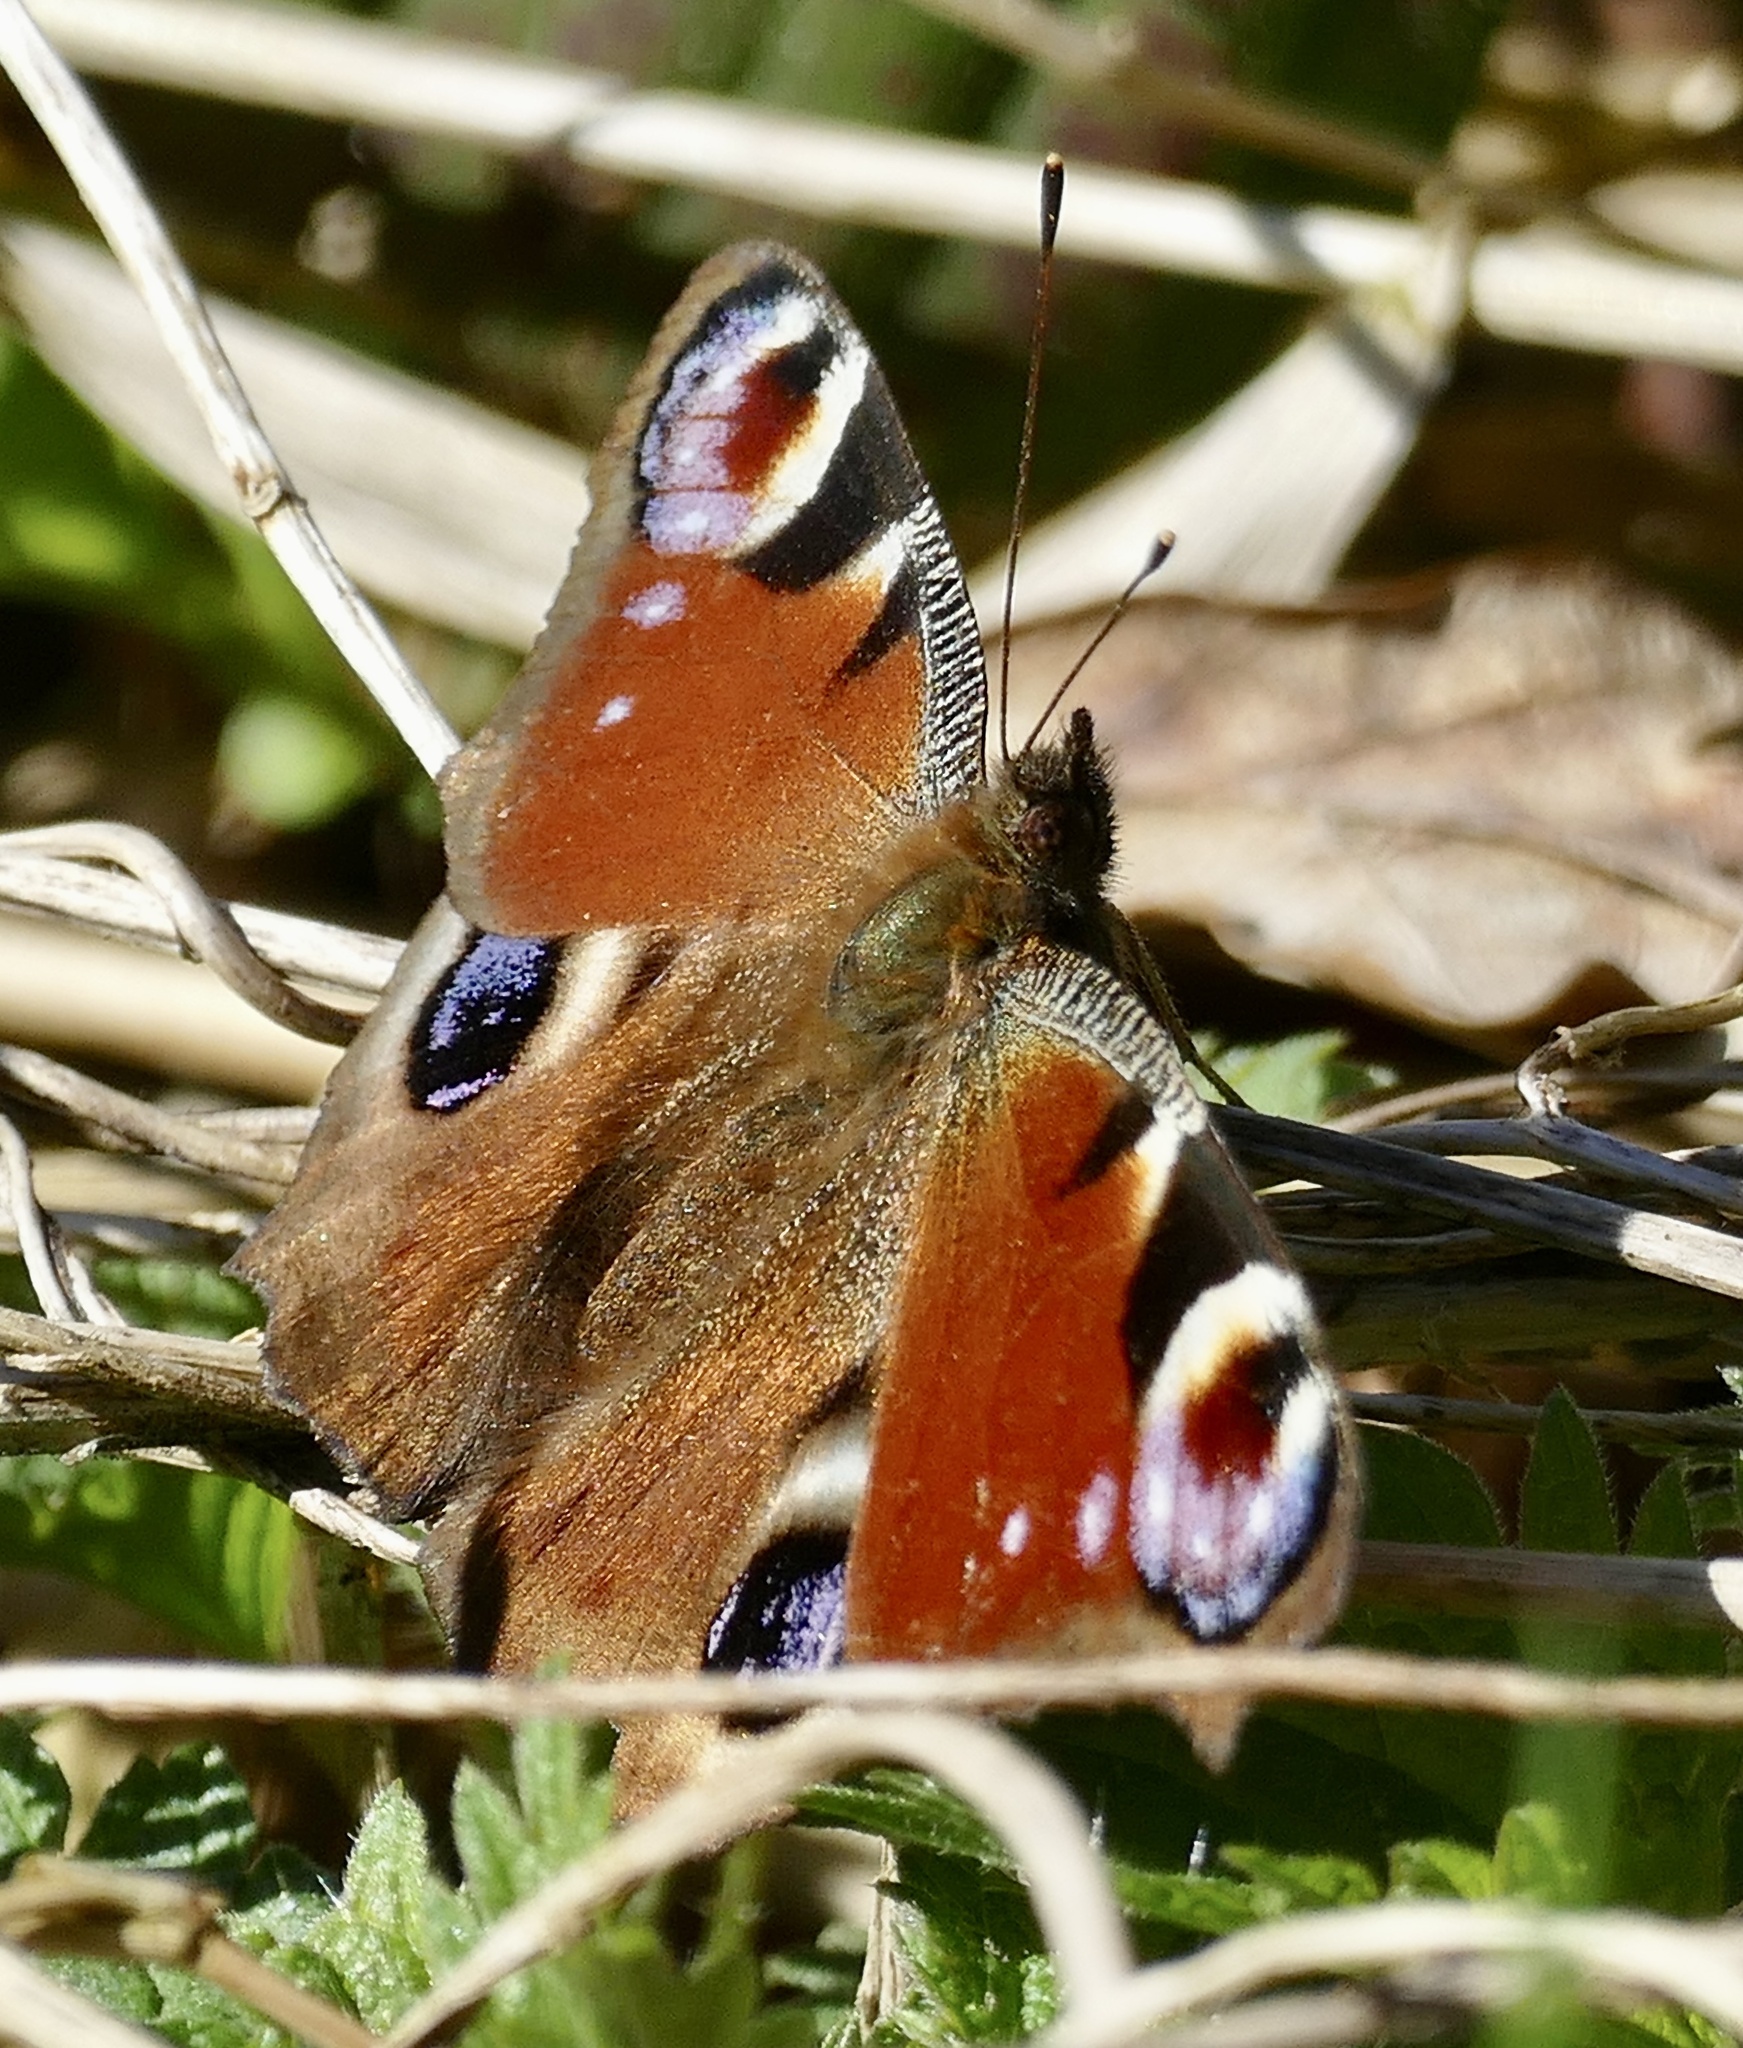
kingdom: Animalia
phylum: Arthropoda
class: Insecta
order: Lepidoptera
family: Nymphalidae
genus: Aglais
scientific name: Aglais io
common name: Peacock
